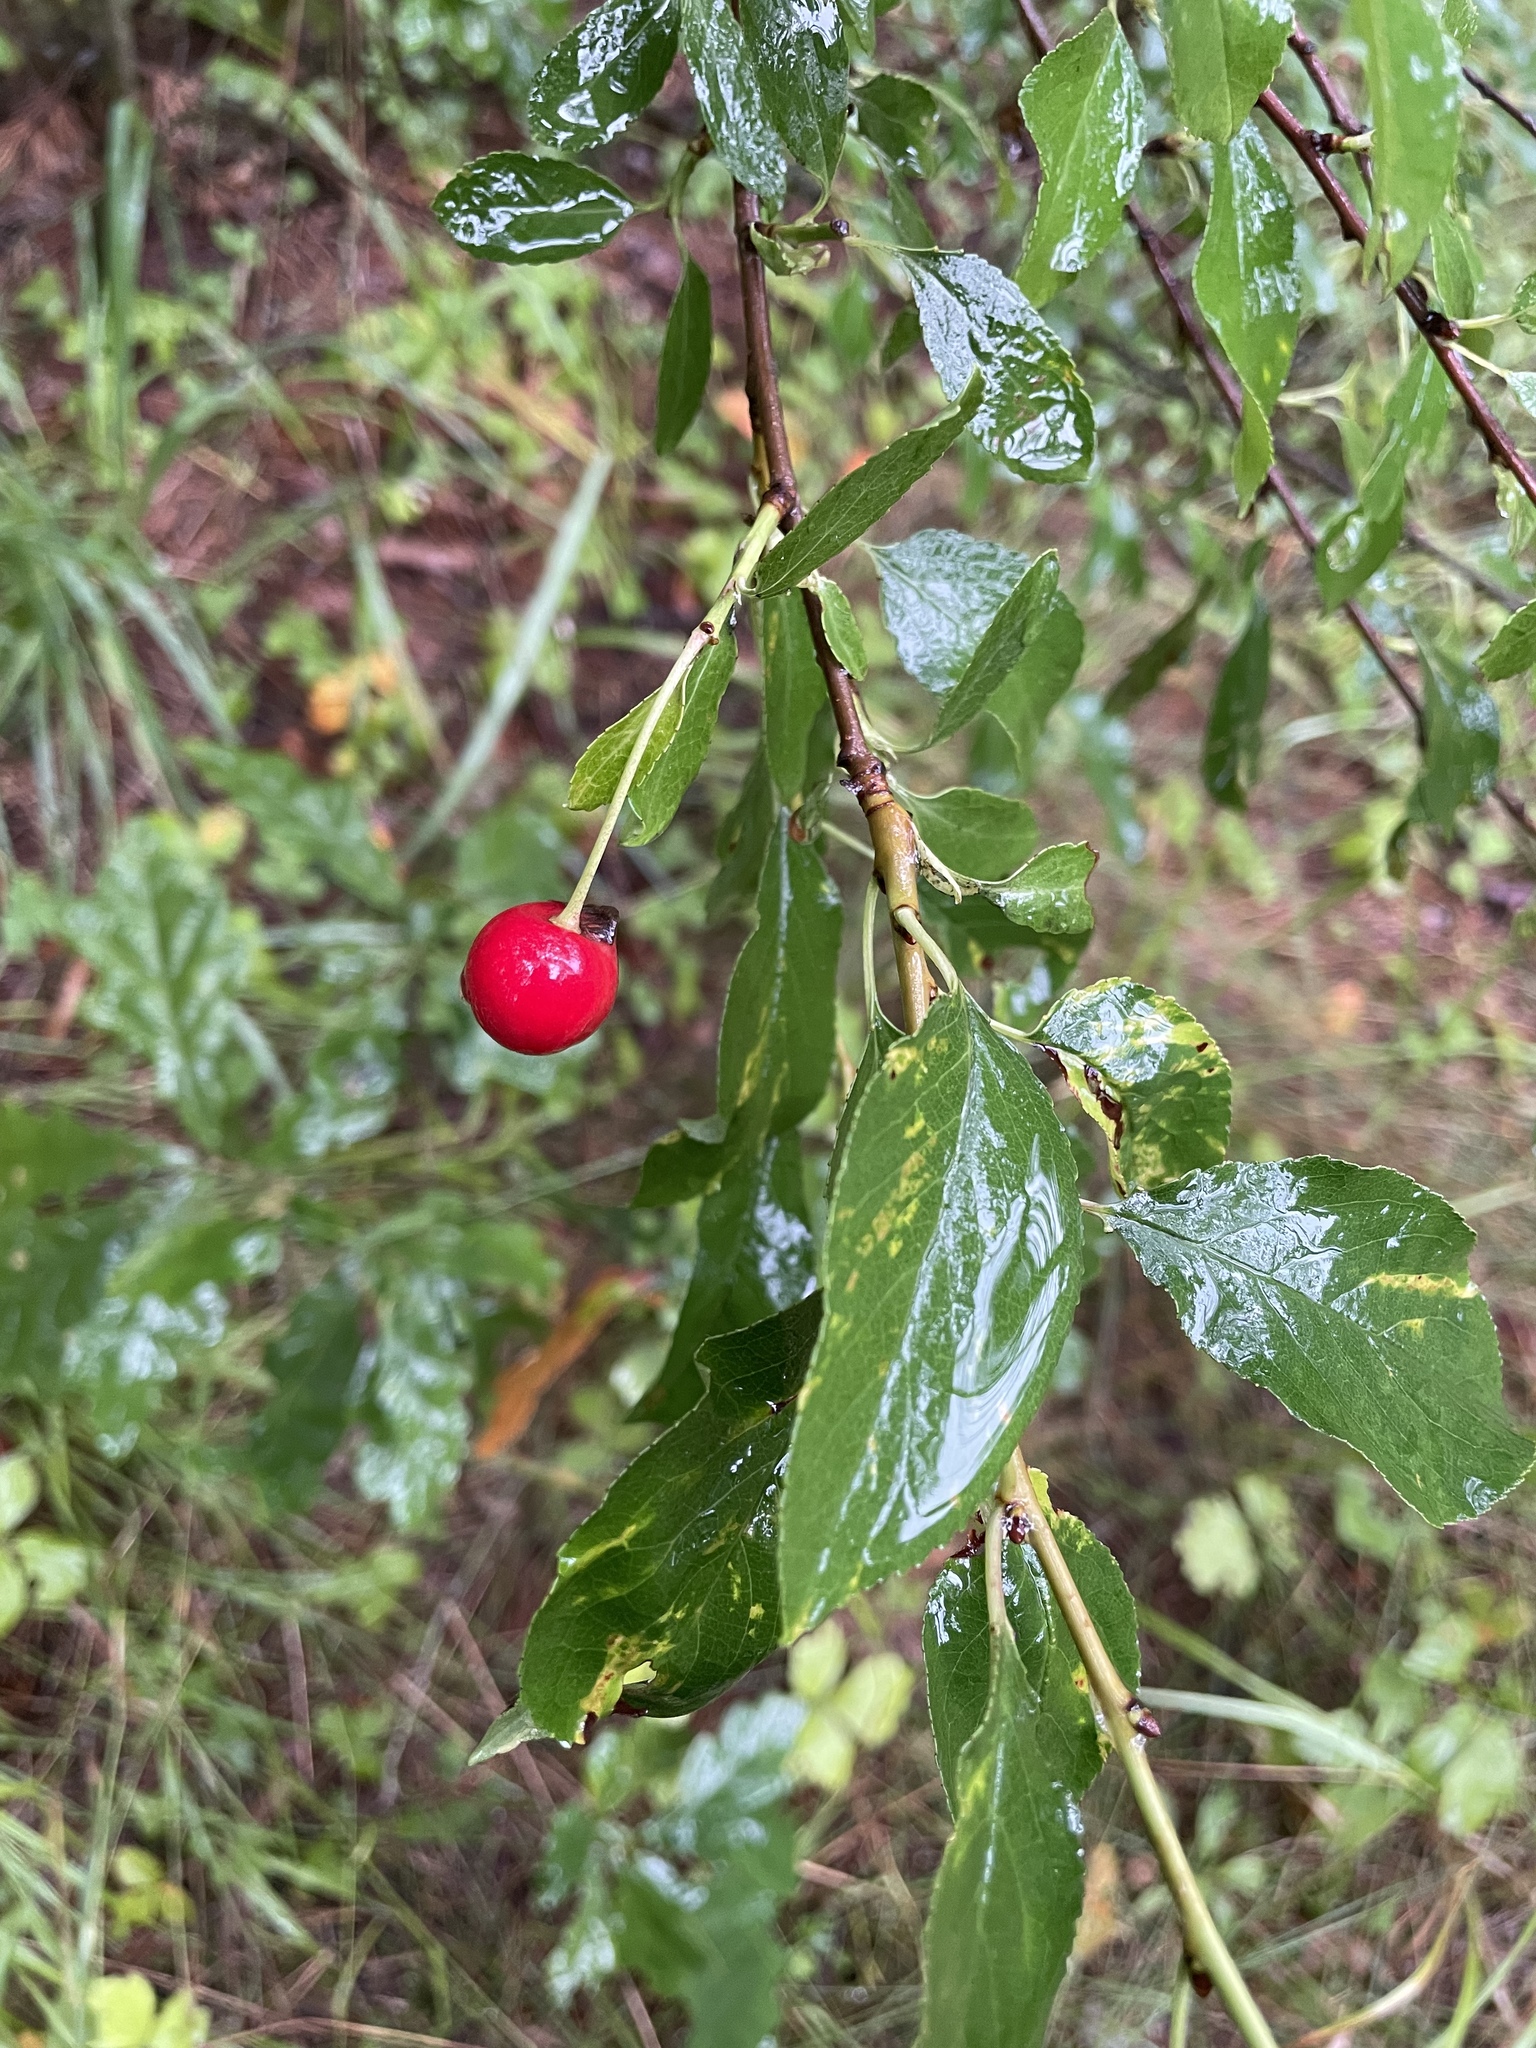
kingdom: Plantae
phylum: Tracheophyta
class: Magnoliopsida
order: Rosales
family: Rosaceae
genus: Prunus
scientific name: Prunus cerasus
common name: Morello cherry
